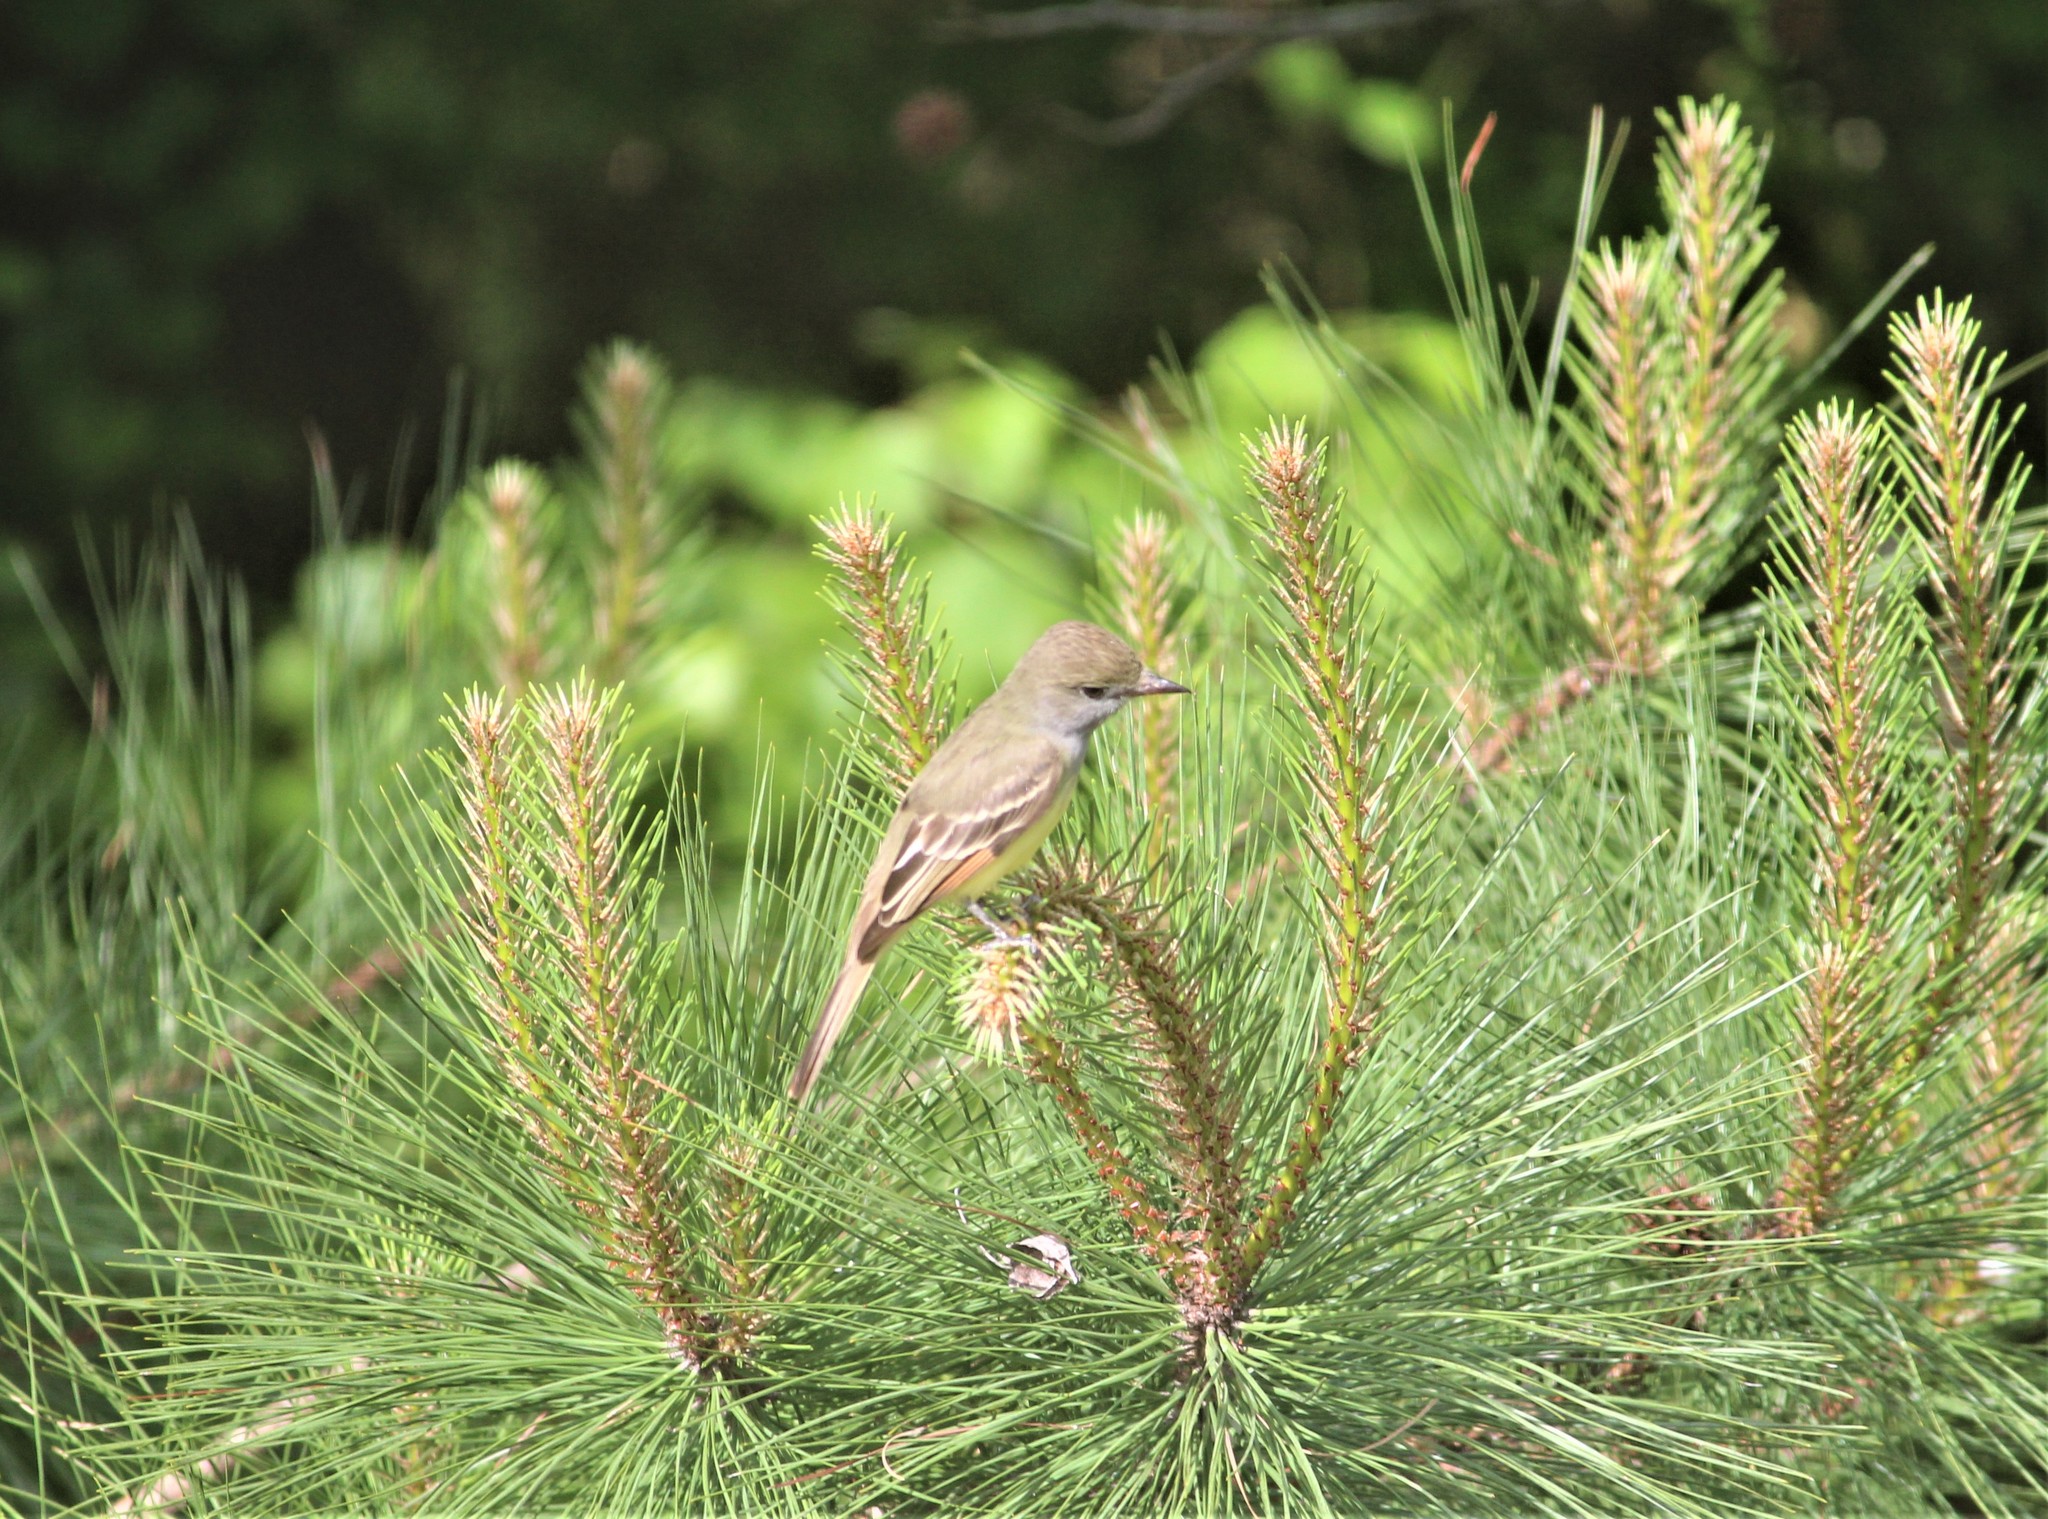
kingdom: Animalia
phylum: Chordata
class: Aves
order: Passeriformes
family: Tyrannidae
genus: Myiarchus
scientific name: Myiarchus crinitus
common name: Great crested flycatcher
